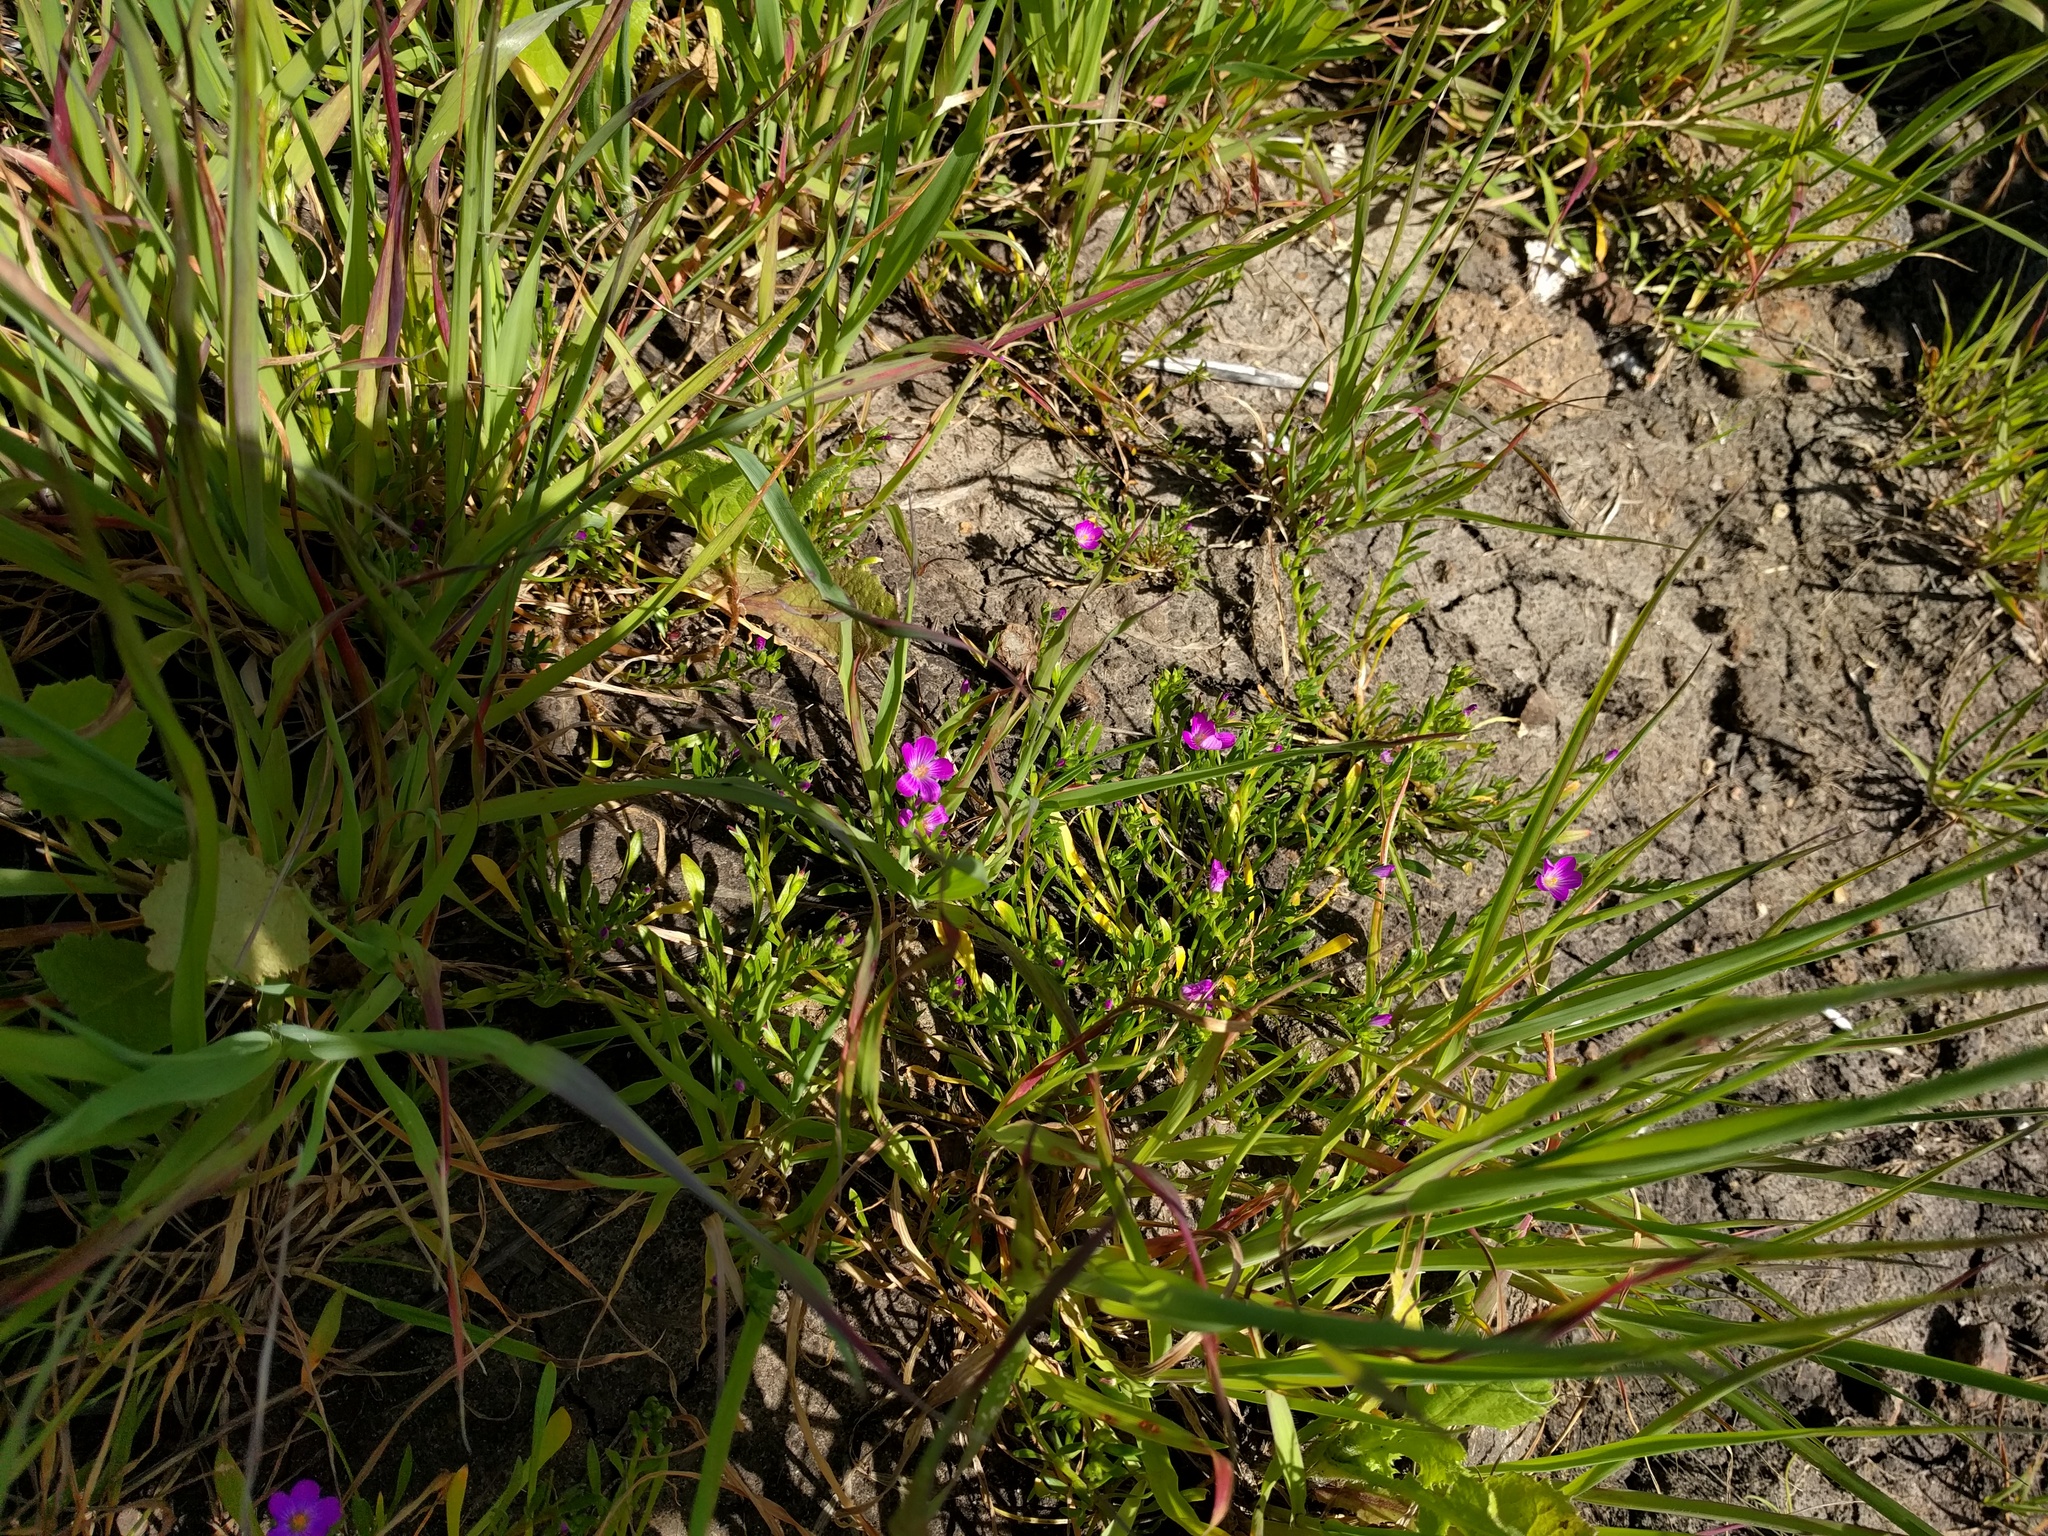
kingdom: Plantae
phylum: Tracheophyta
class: Magnoliopsida
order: Caryophyllales
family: Montiaceae
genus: Calandrinia
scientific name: Calandrinia menziesii
